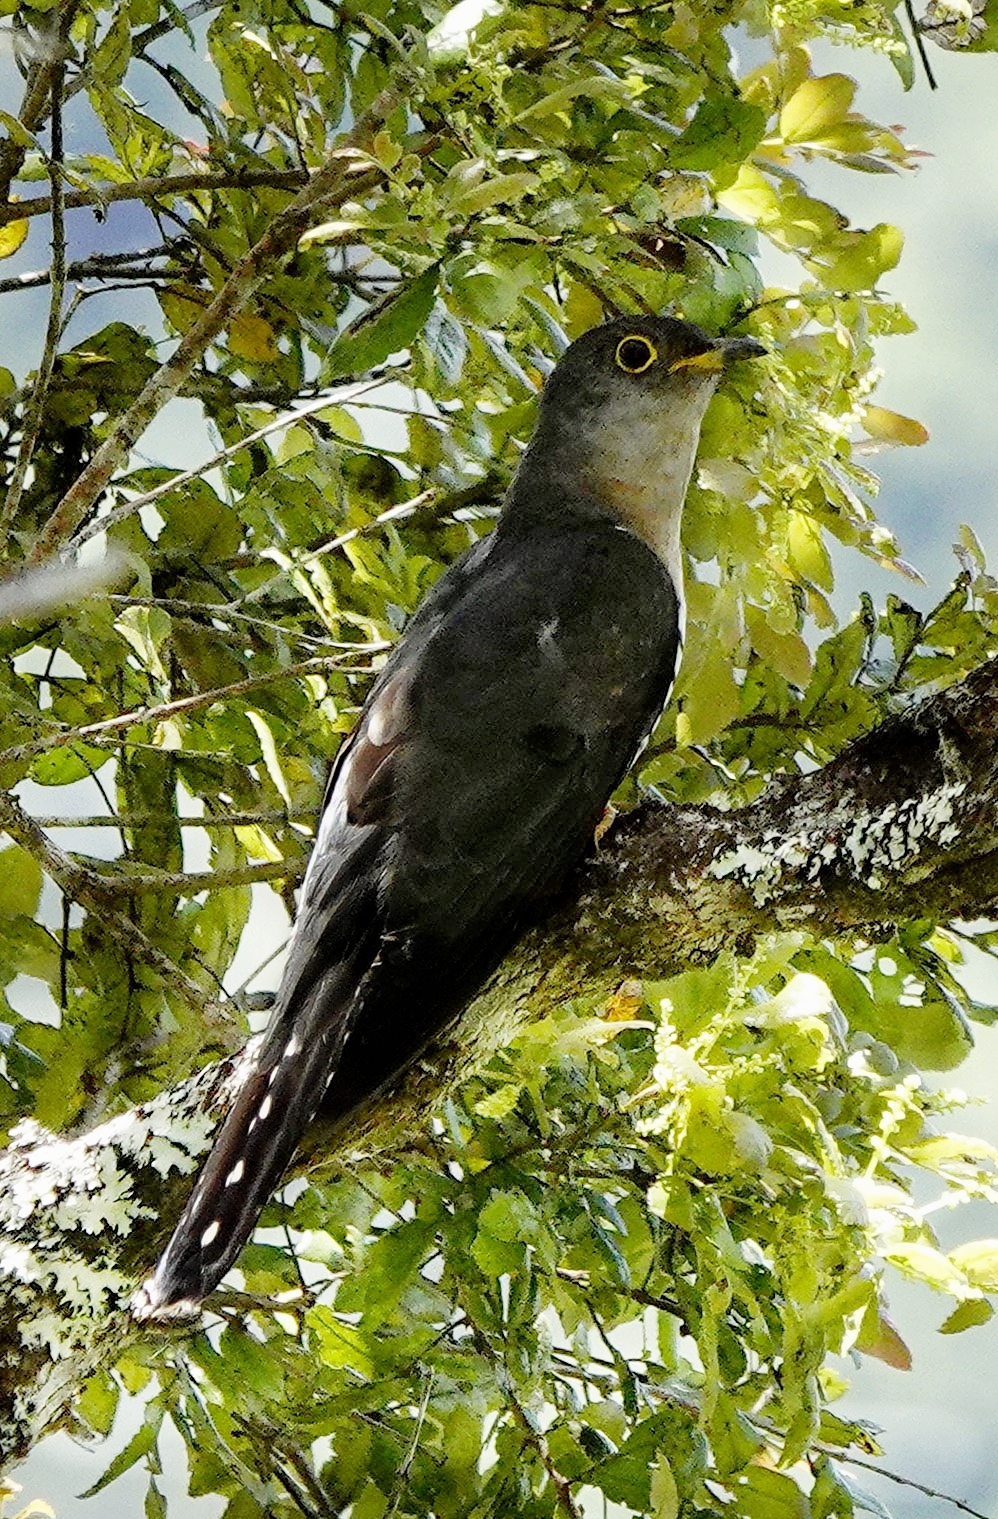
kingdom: Animalia
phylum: Chordata
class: Aves
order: Cuculiformes
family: Cuculidae
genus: Cuculus
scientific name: Cuculus rochii
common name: Madagascar cuckoo
